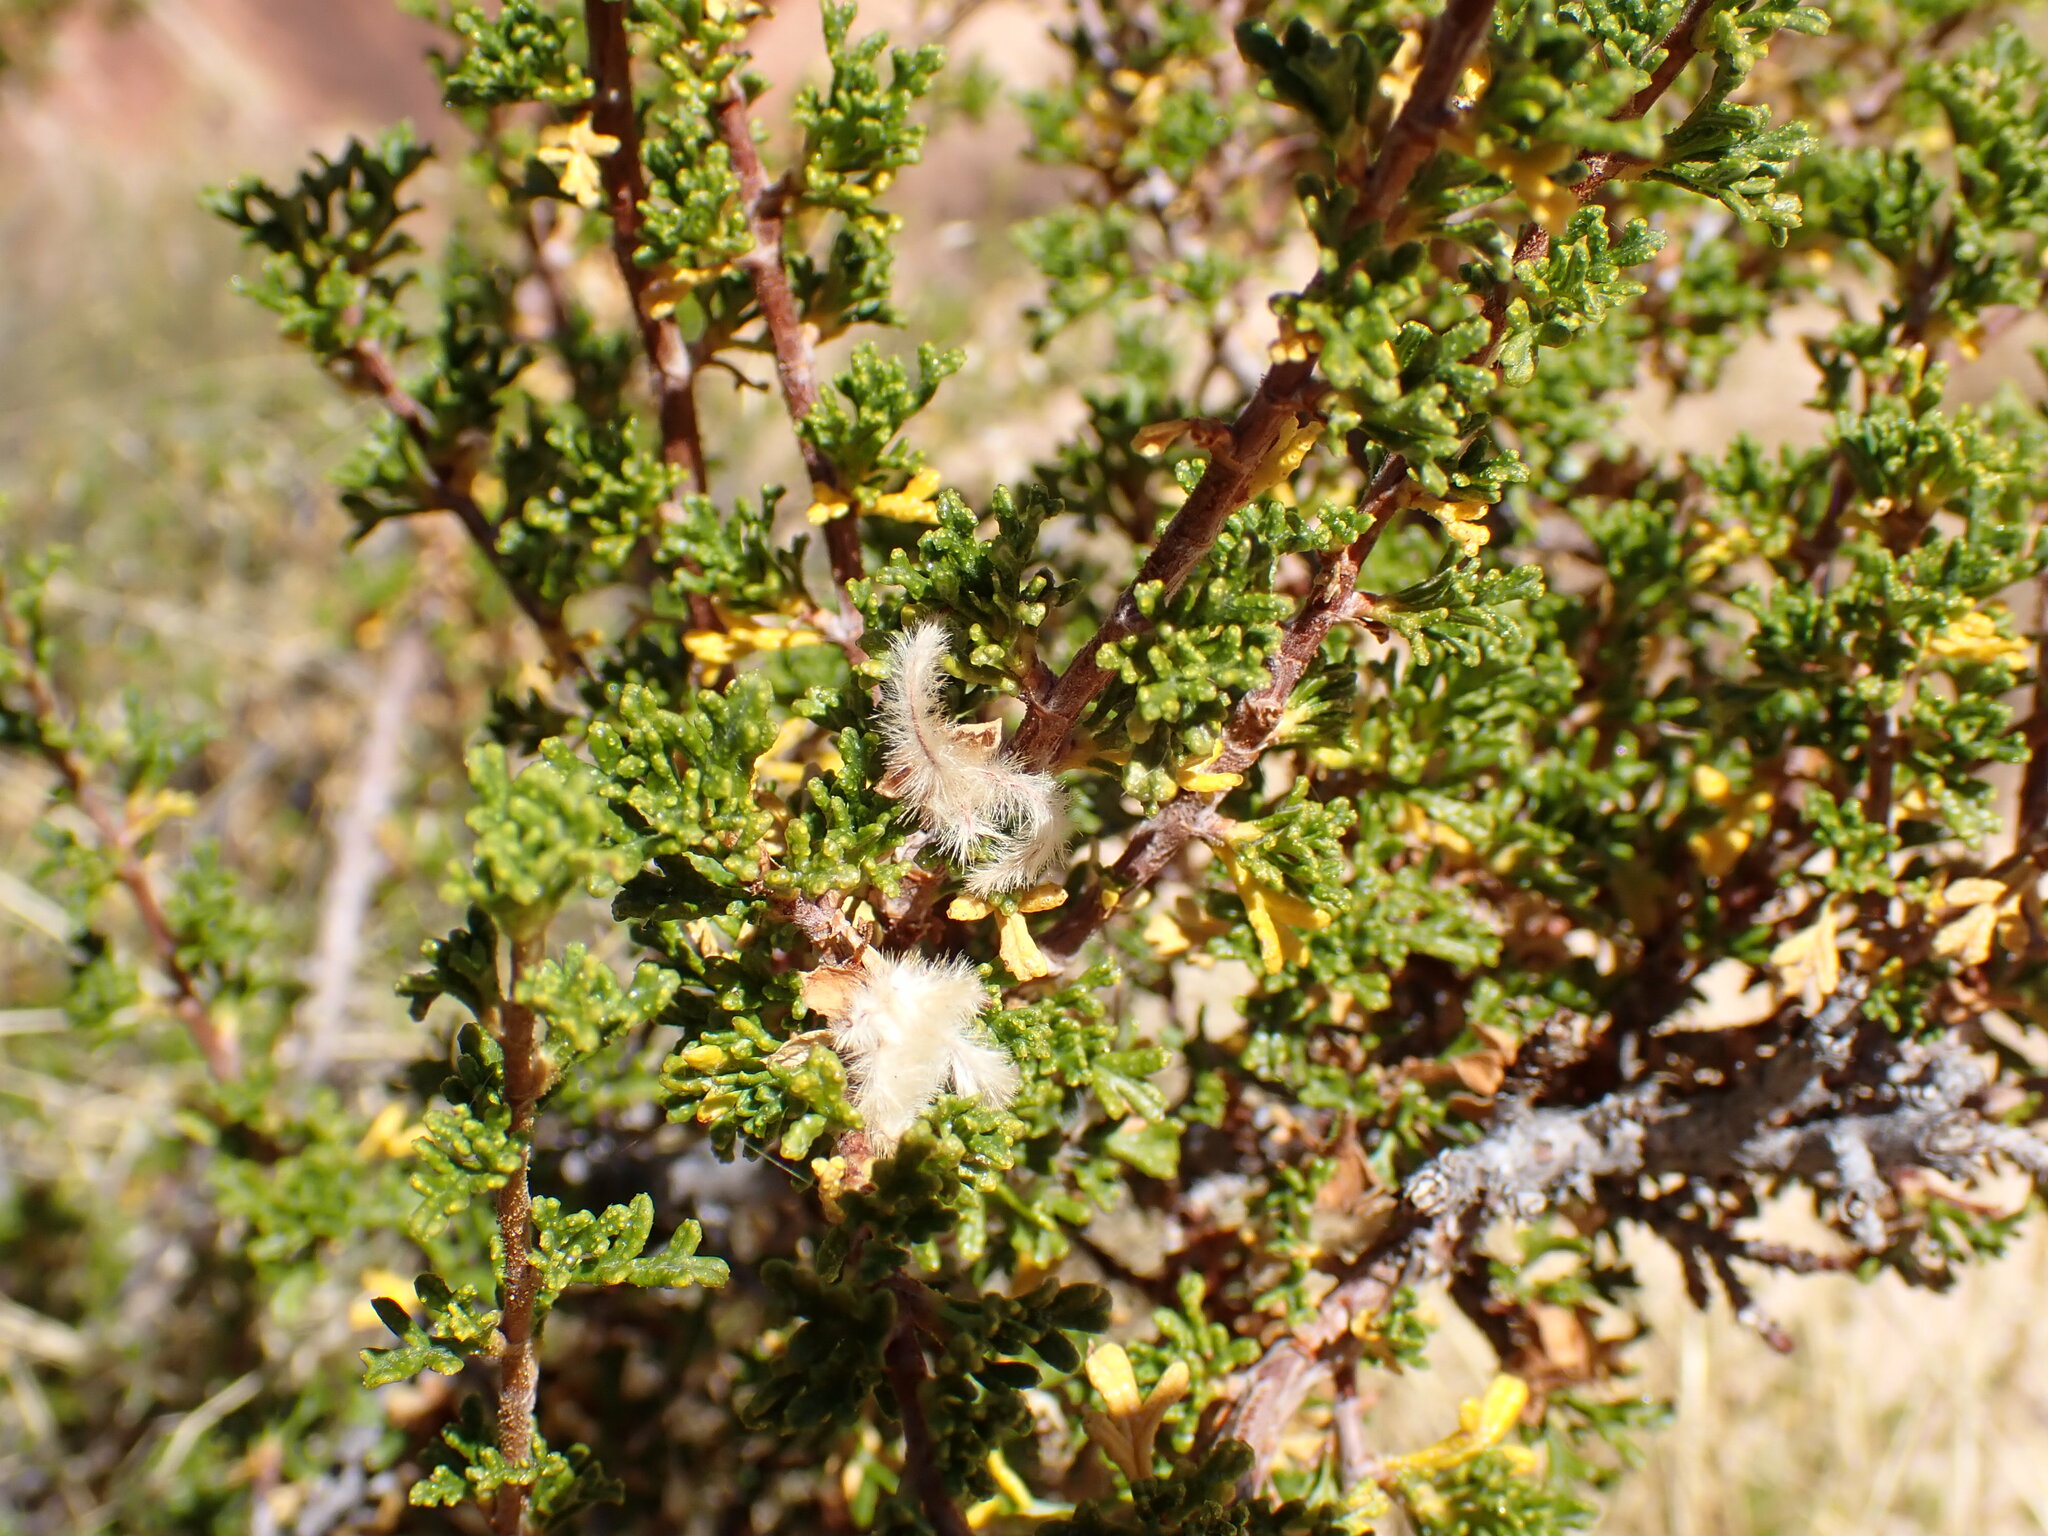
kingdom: Plantae
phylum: Tracheophyta
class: Magnoliopsida
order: Rosales
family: Rosaceae
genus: Purshia
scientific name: Purshia stansburiana
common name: Stansbury's cliffrose
